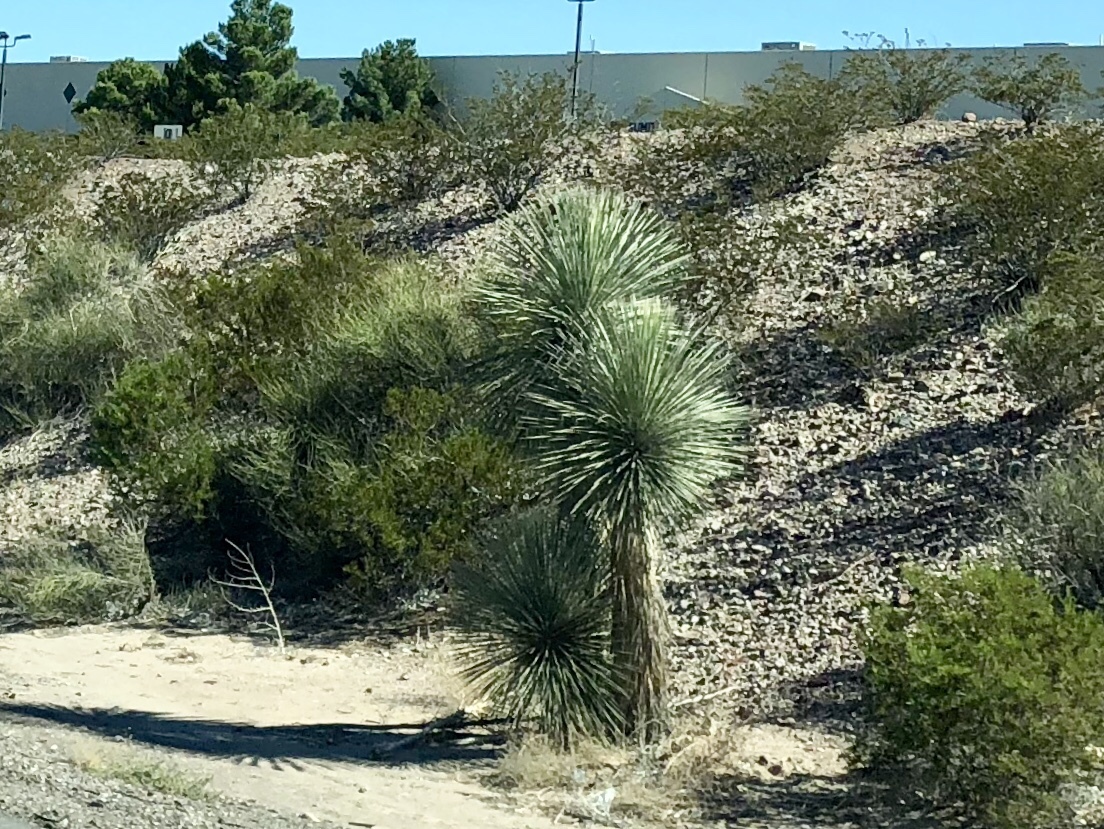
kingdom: Plantae
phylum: Tracheophyta
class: Liliopsida
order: Asparagales
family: Asparagaceae
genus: Yucca
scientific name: Yucca elata
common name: Palmella
